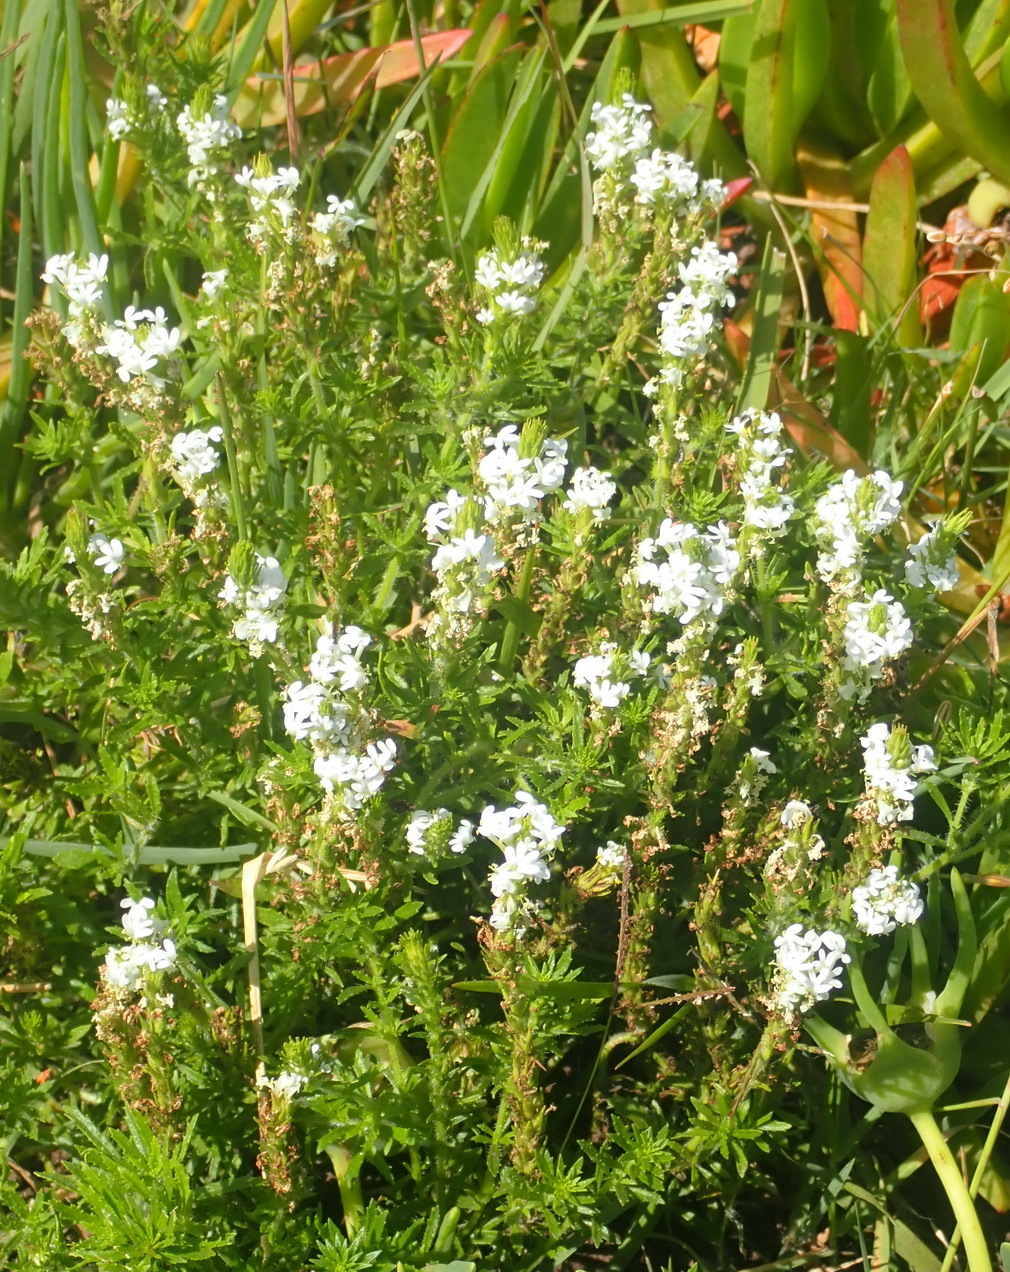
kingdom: Plantae
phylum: Tracheophyta
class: Magnoliopsida
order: Lamiales
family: Scrophulariaceae
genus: Dischisma
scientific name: Dischisma ciliatum
